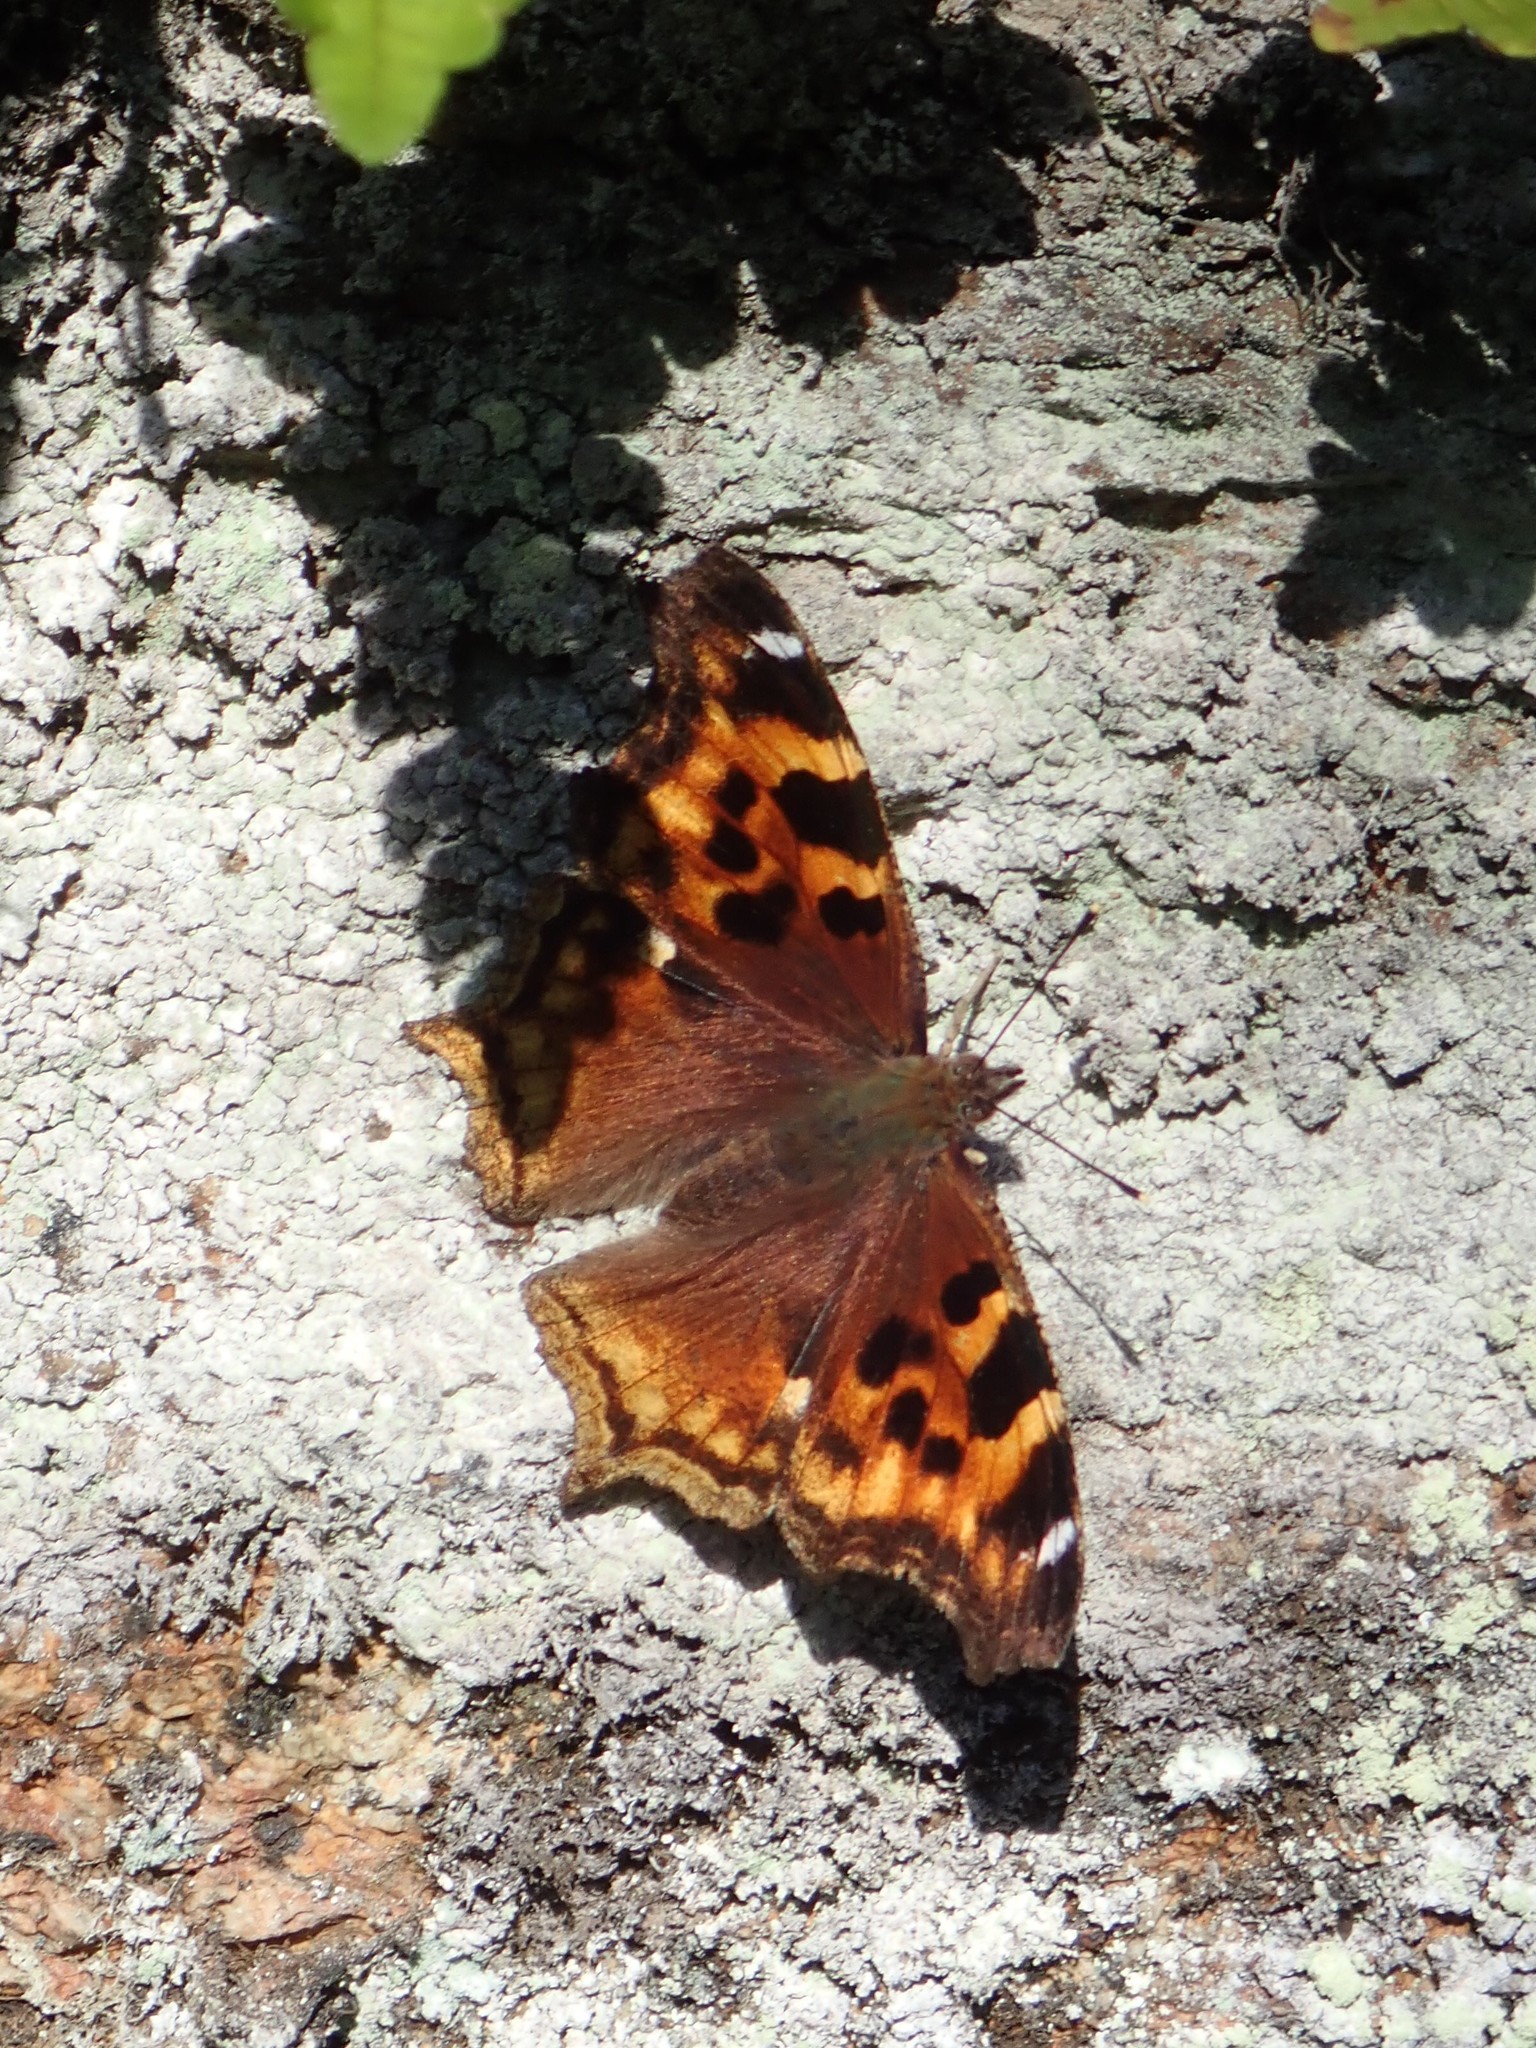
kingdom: Animalia
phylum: Arthropoda
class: Insecta
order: Lepidoptera
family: Nymphalidae
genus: Polygonia
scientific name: Polygonia vaualbum
